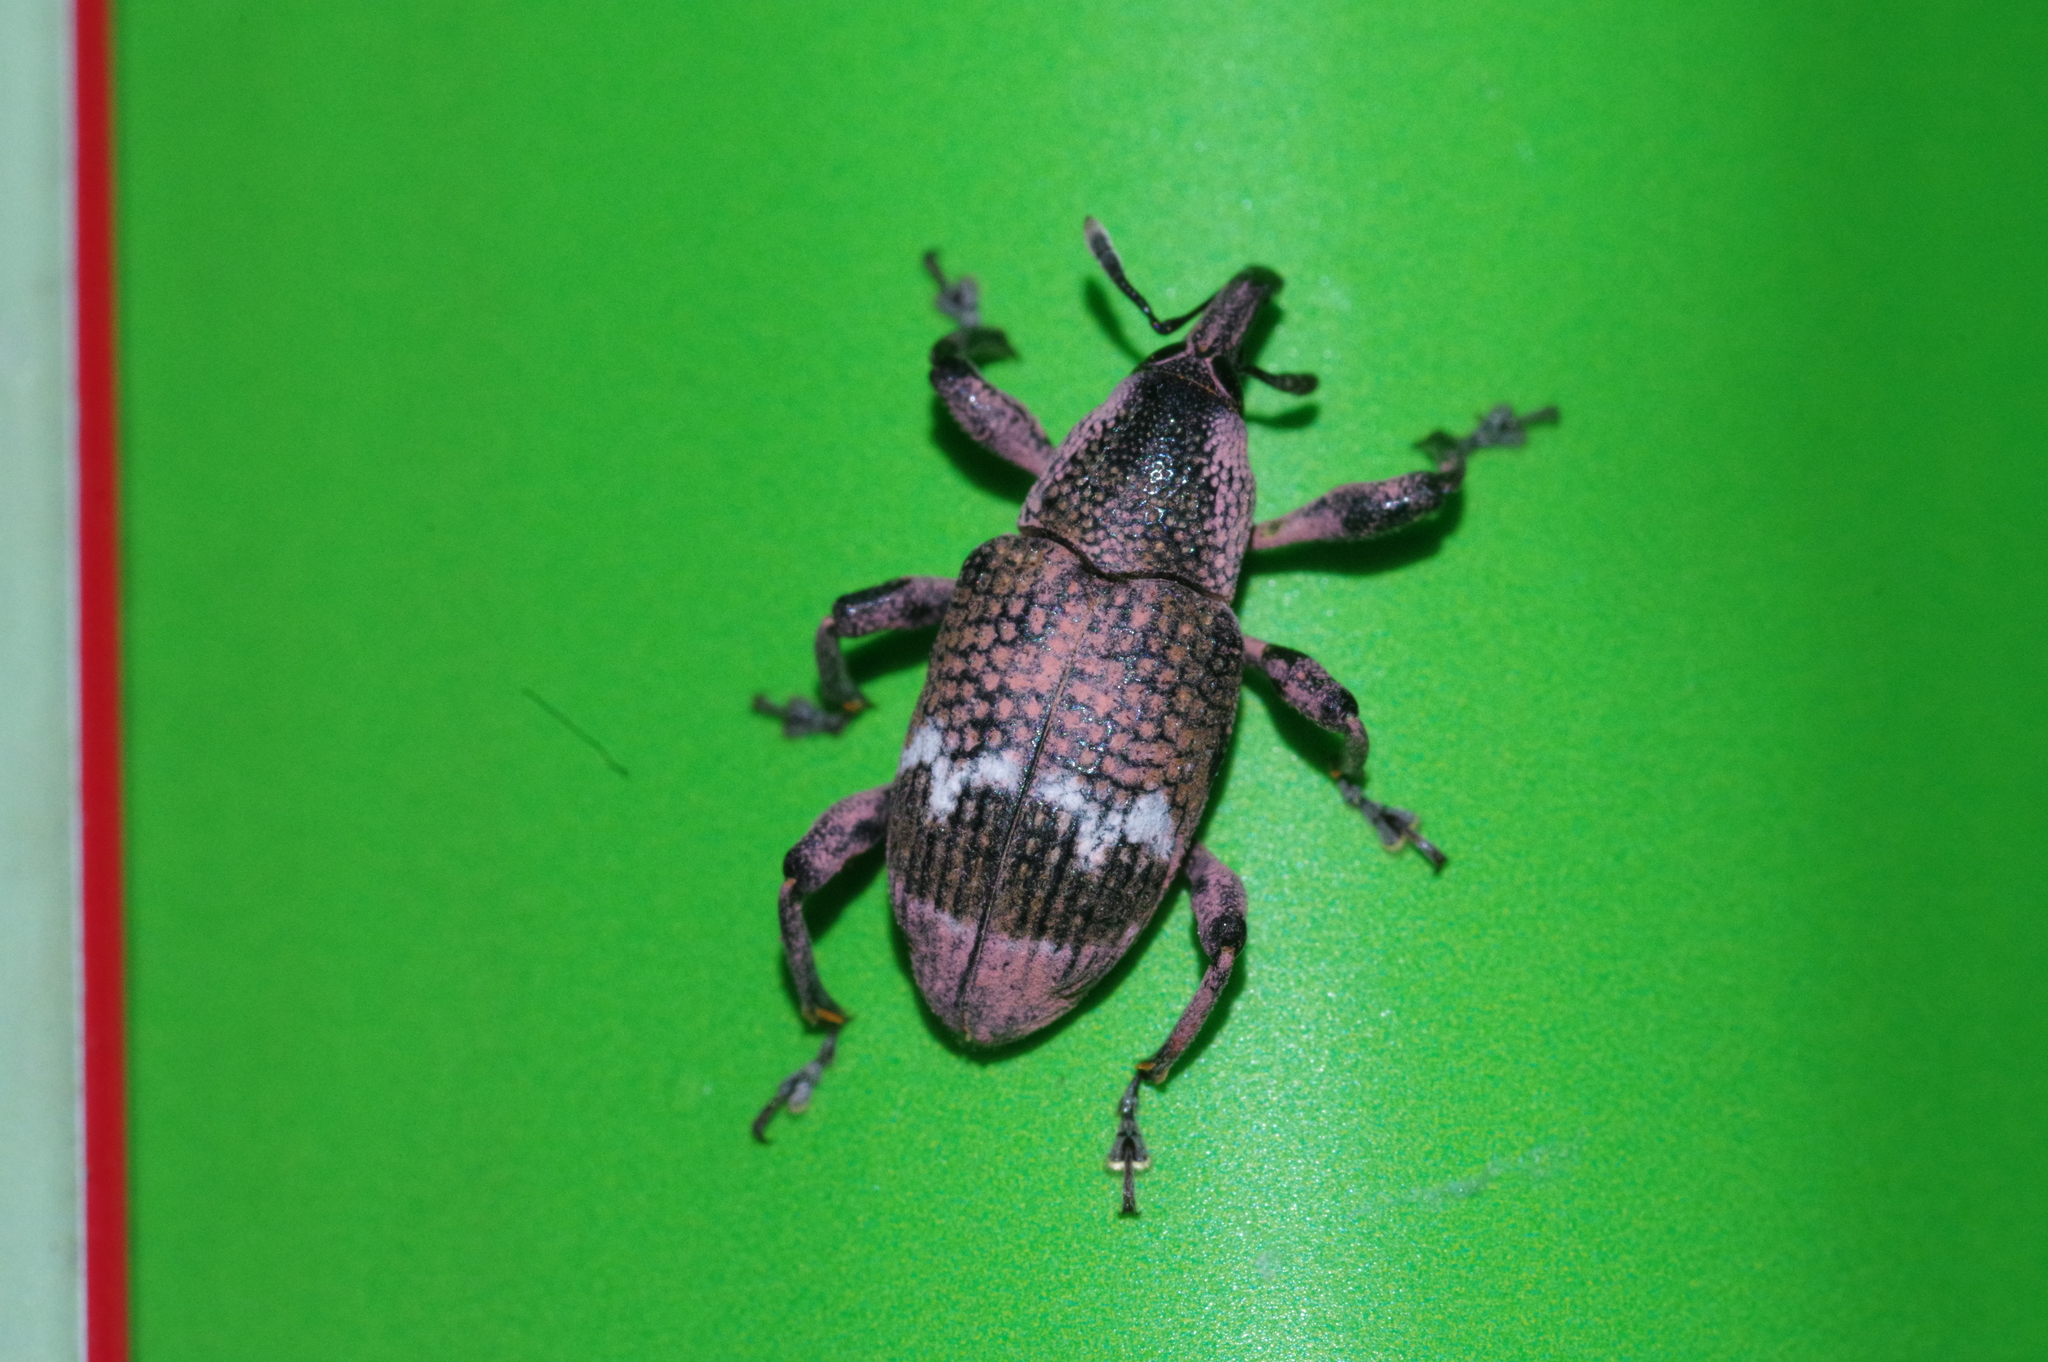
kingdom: Animalia
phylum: Arthropoda
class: Insecta
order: Coleoptera
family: Curculionidae
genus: Aclees
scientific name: Aclees hirayamai
